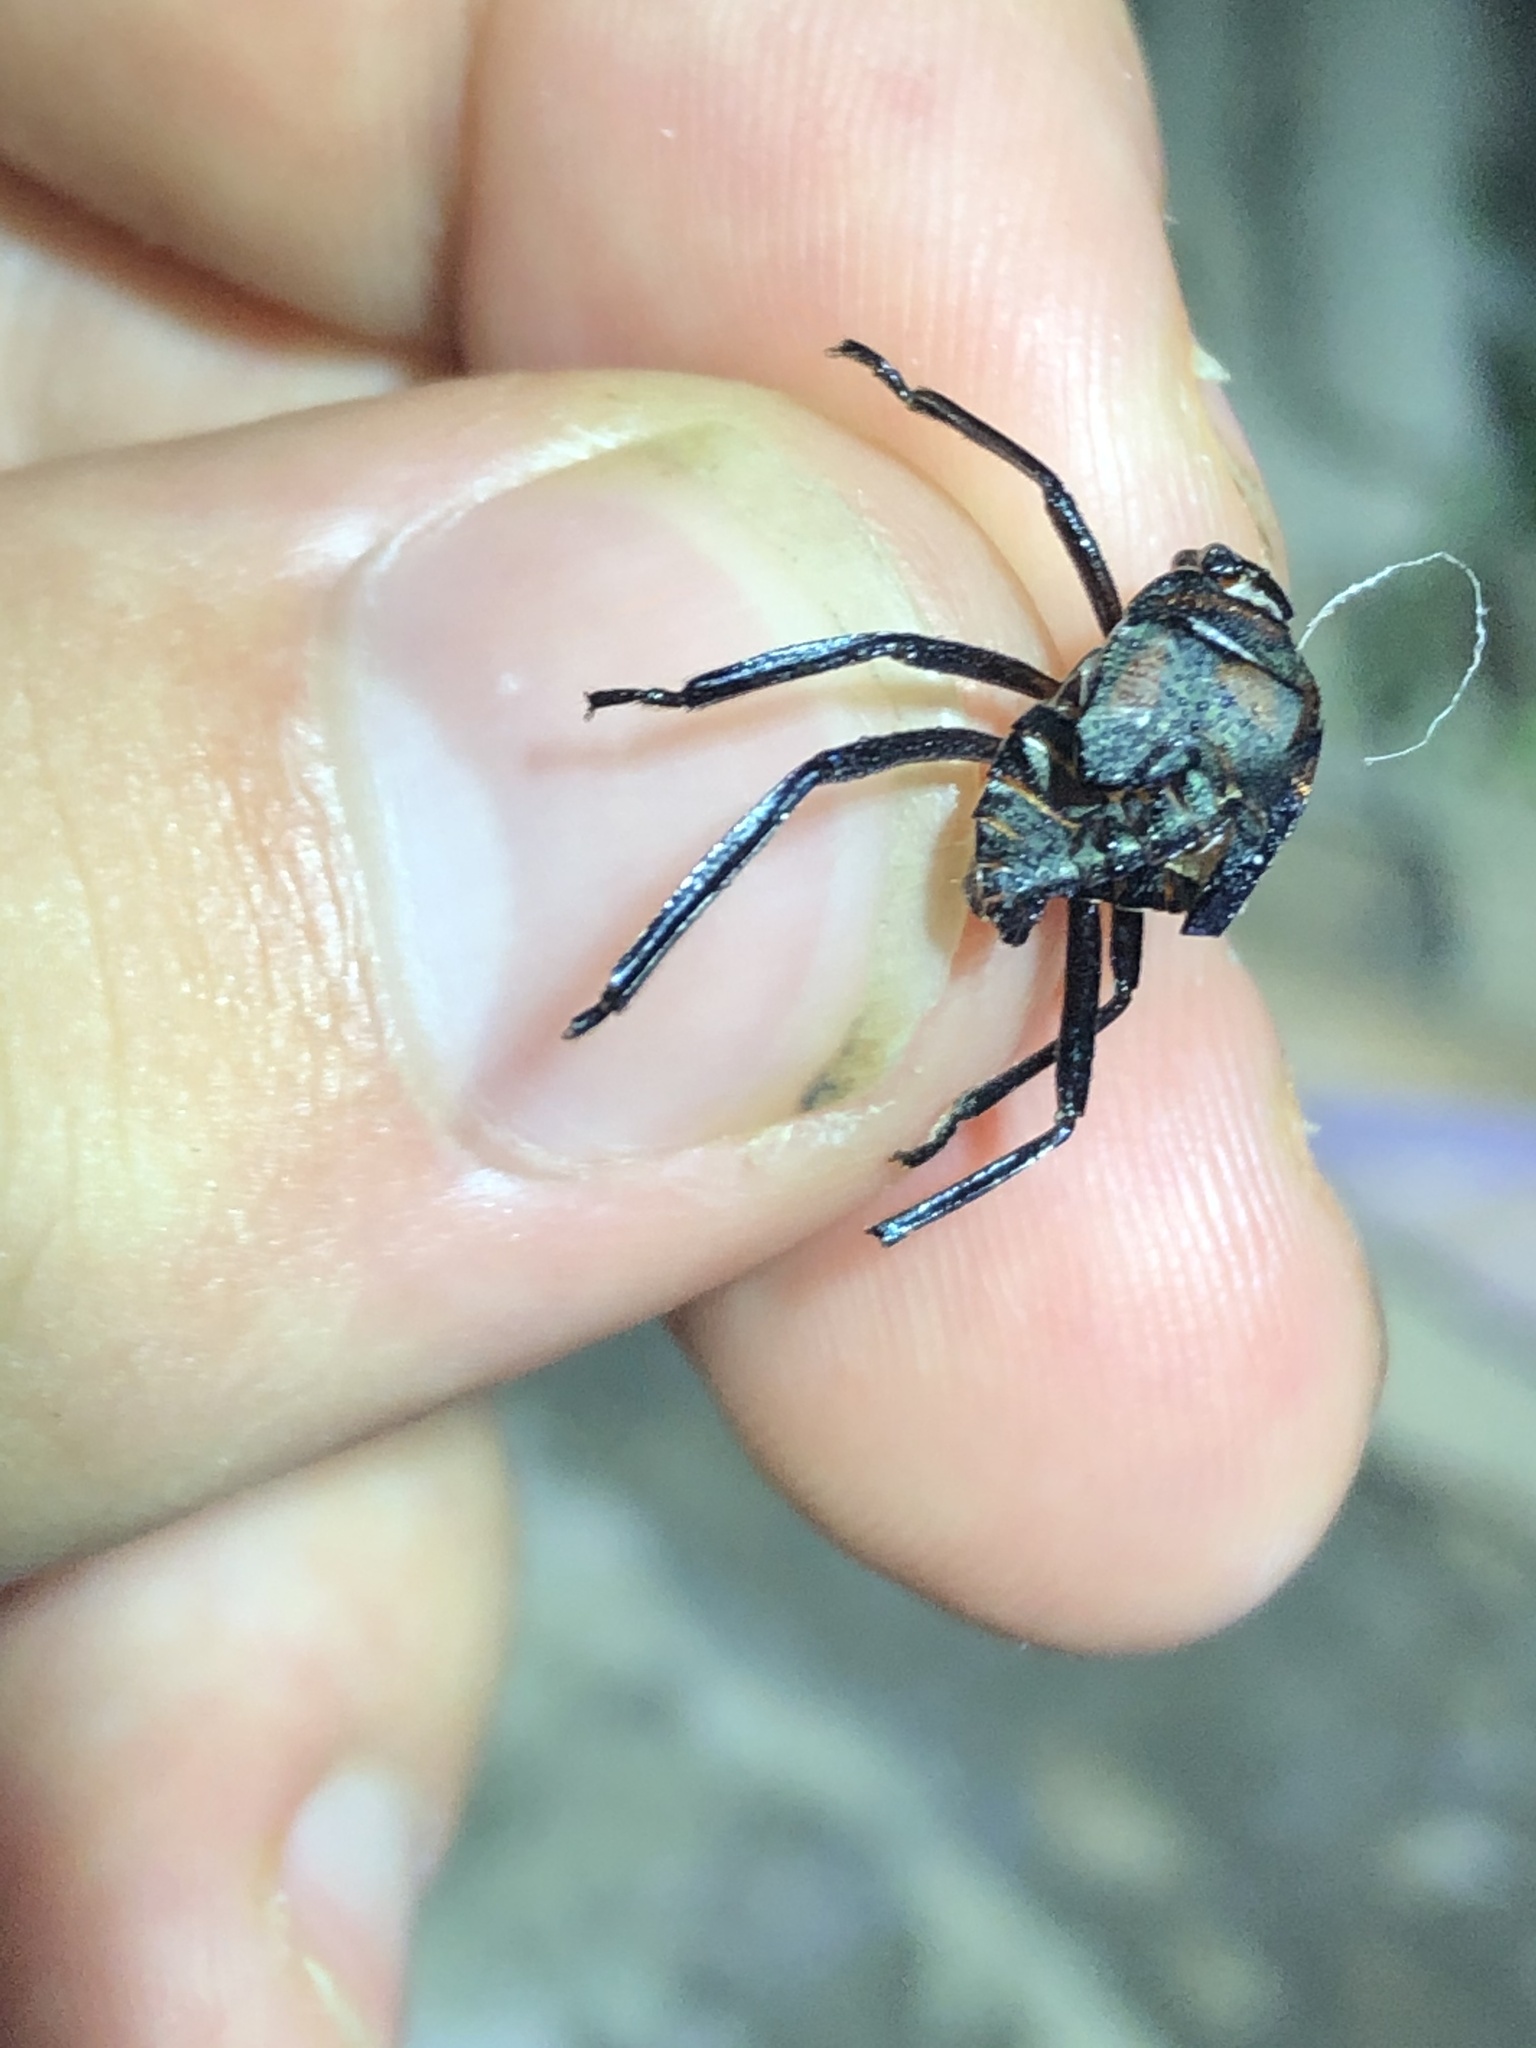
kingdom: Animalia
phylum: Chordata
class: Amphibia
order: Anura
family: Leptodactylidae
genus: Leptodactylus
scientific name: Leptodactylus rhodomystax
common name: Loreto white-lipped frog
